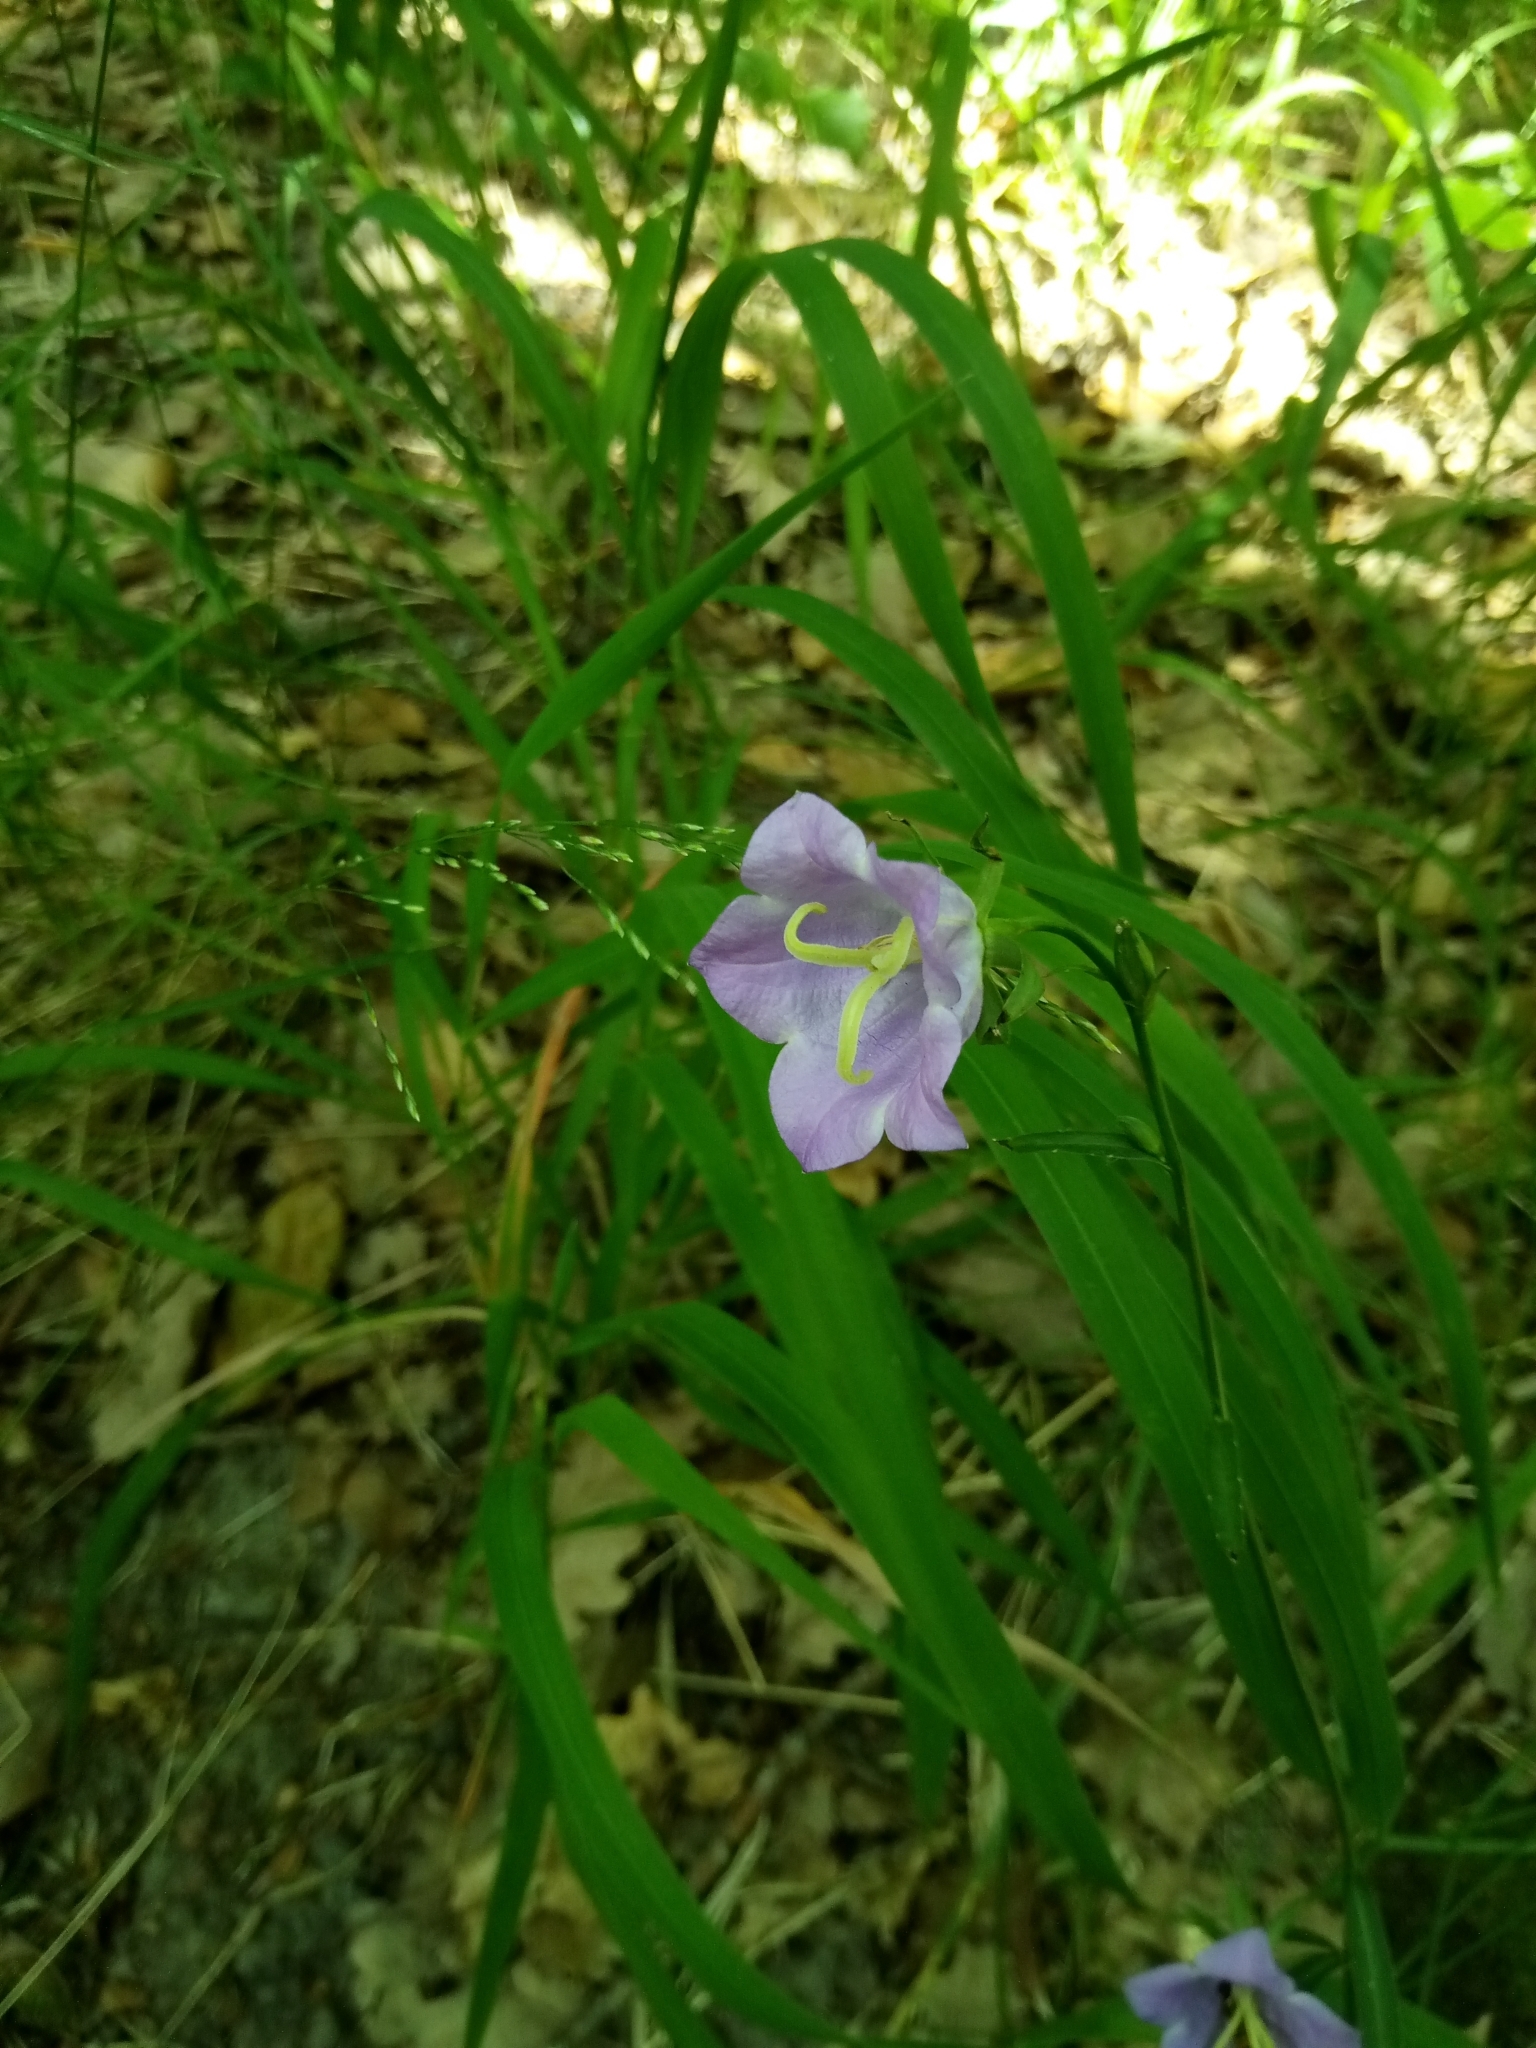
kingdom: Plantae
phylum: Tracheophyta
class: Magnoliopsida
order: Asterales
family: Campanulaceae
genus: Campanula
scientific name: Campanula persicifolia
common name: Peach-leaved bellflower
